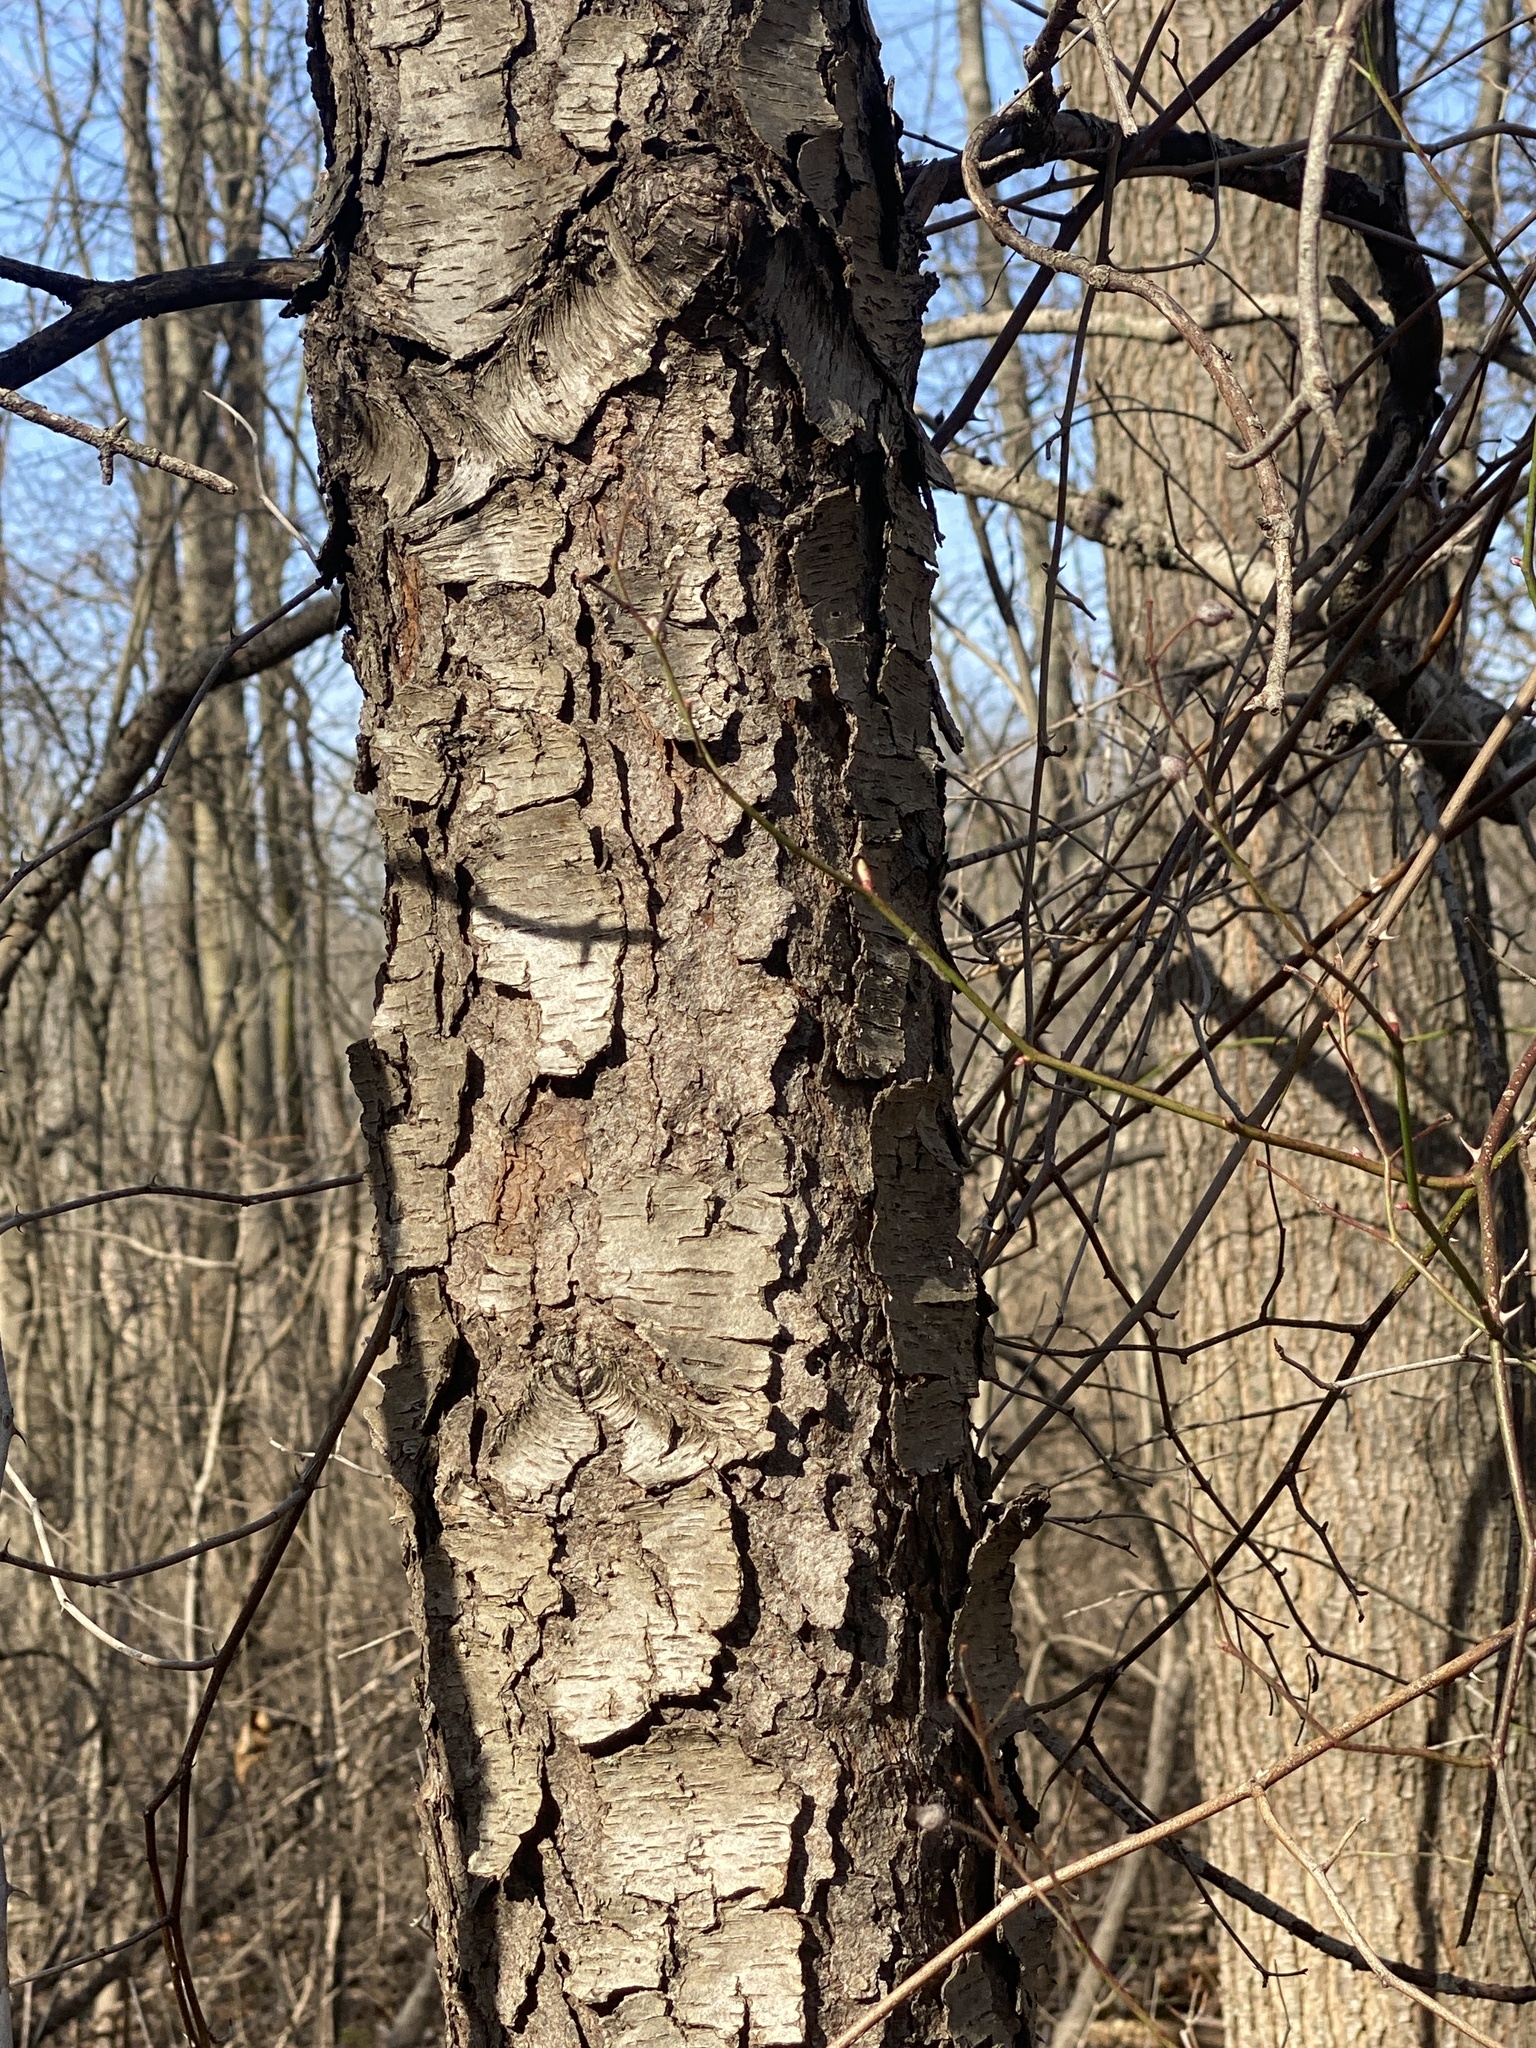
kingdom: Plantae
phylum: Tracheophyta
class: Magnoliopsida
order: Rosales
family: Rosaceae
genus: Prunus
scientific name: Prunus serotina
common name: Black cherry
